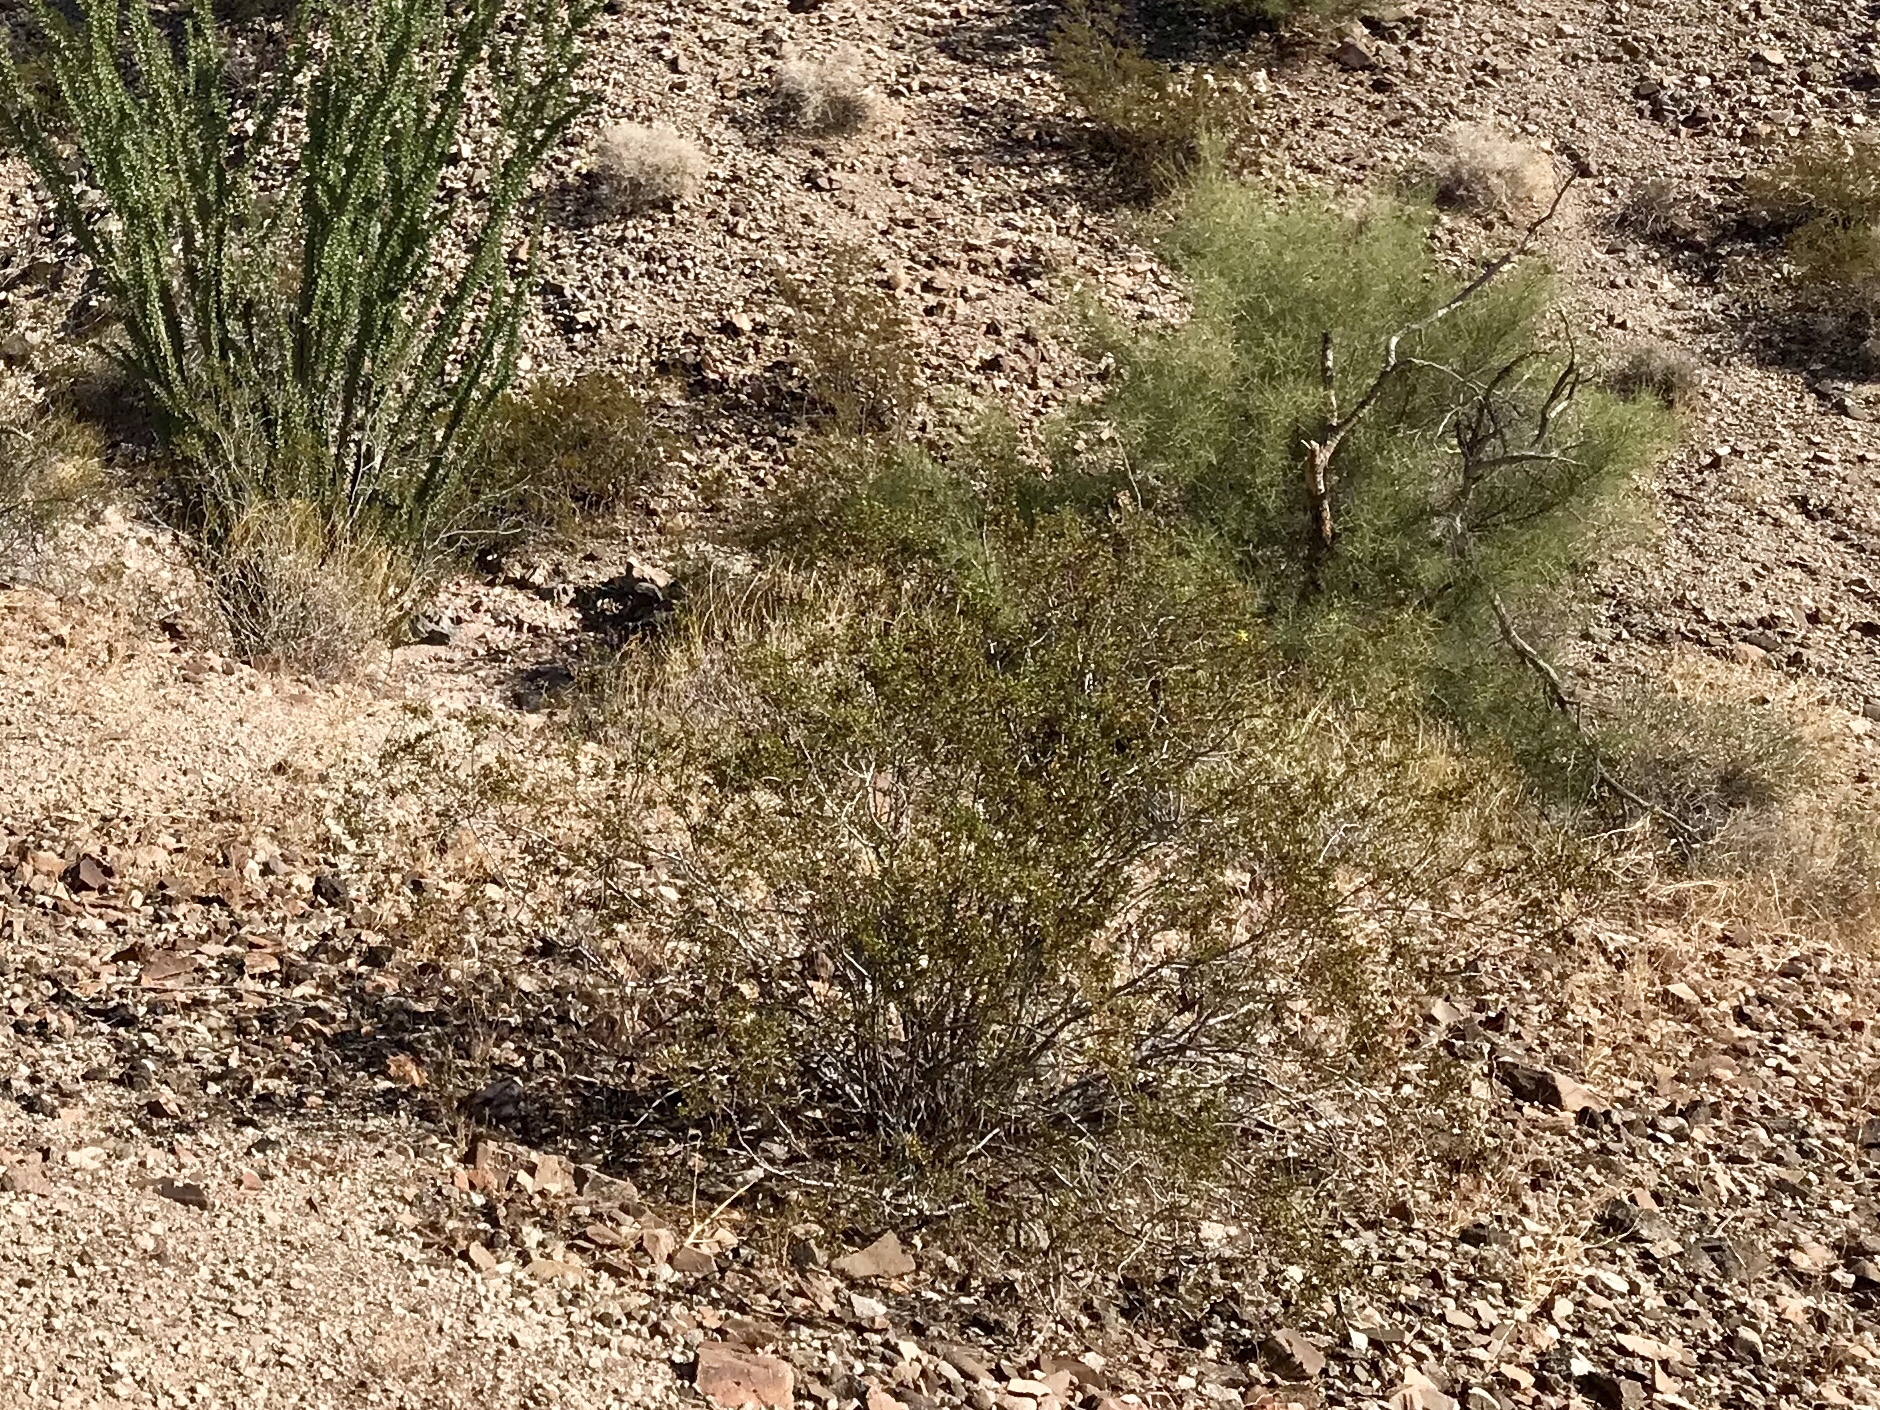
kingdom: Plantae
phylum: Tracheophyta
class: Magnoliopsida
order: Zygophyllales
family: Zygophyllaceae
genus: Larrea
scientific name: Larrea tridentata
